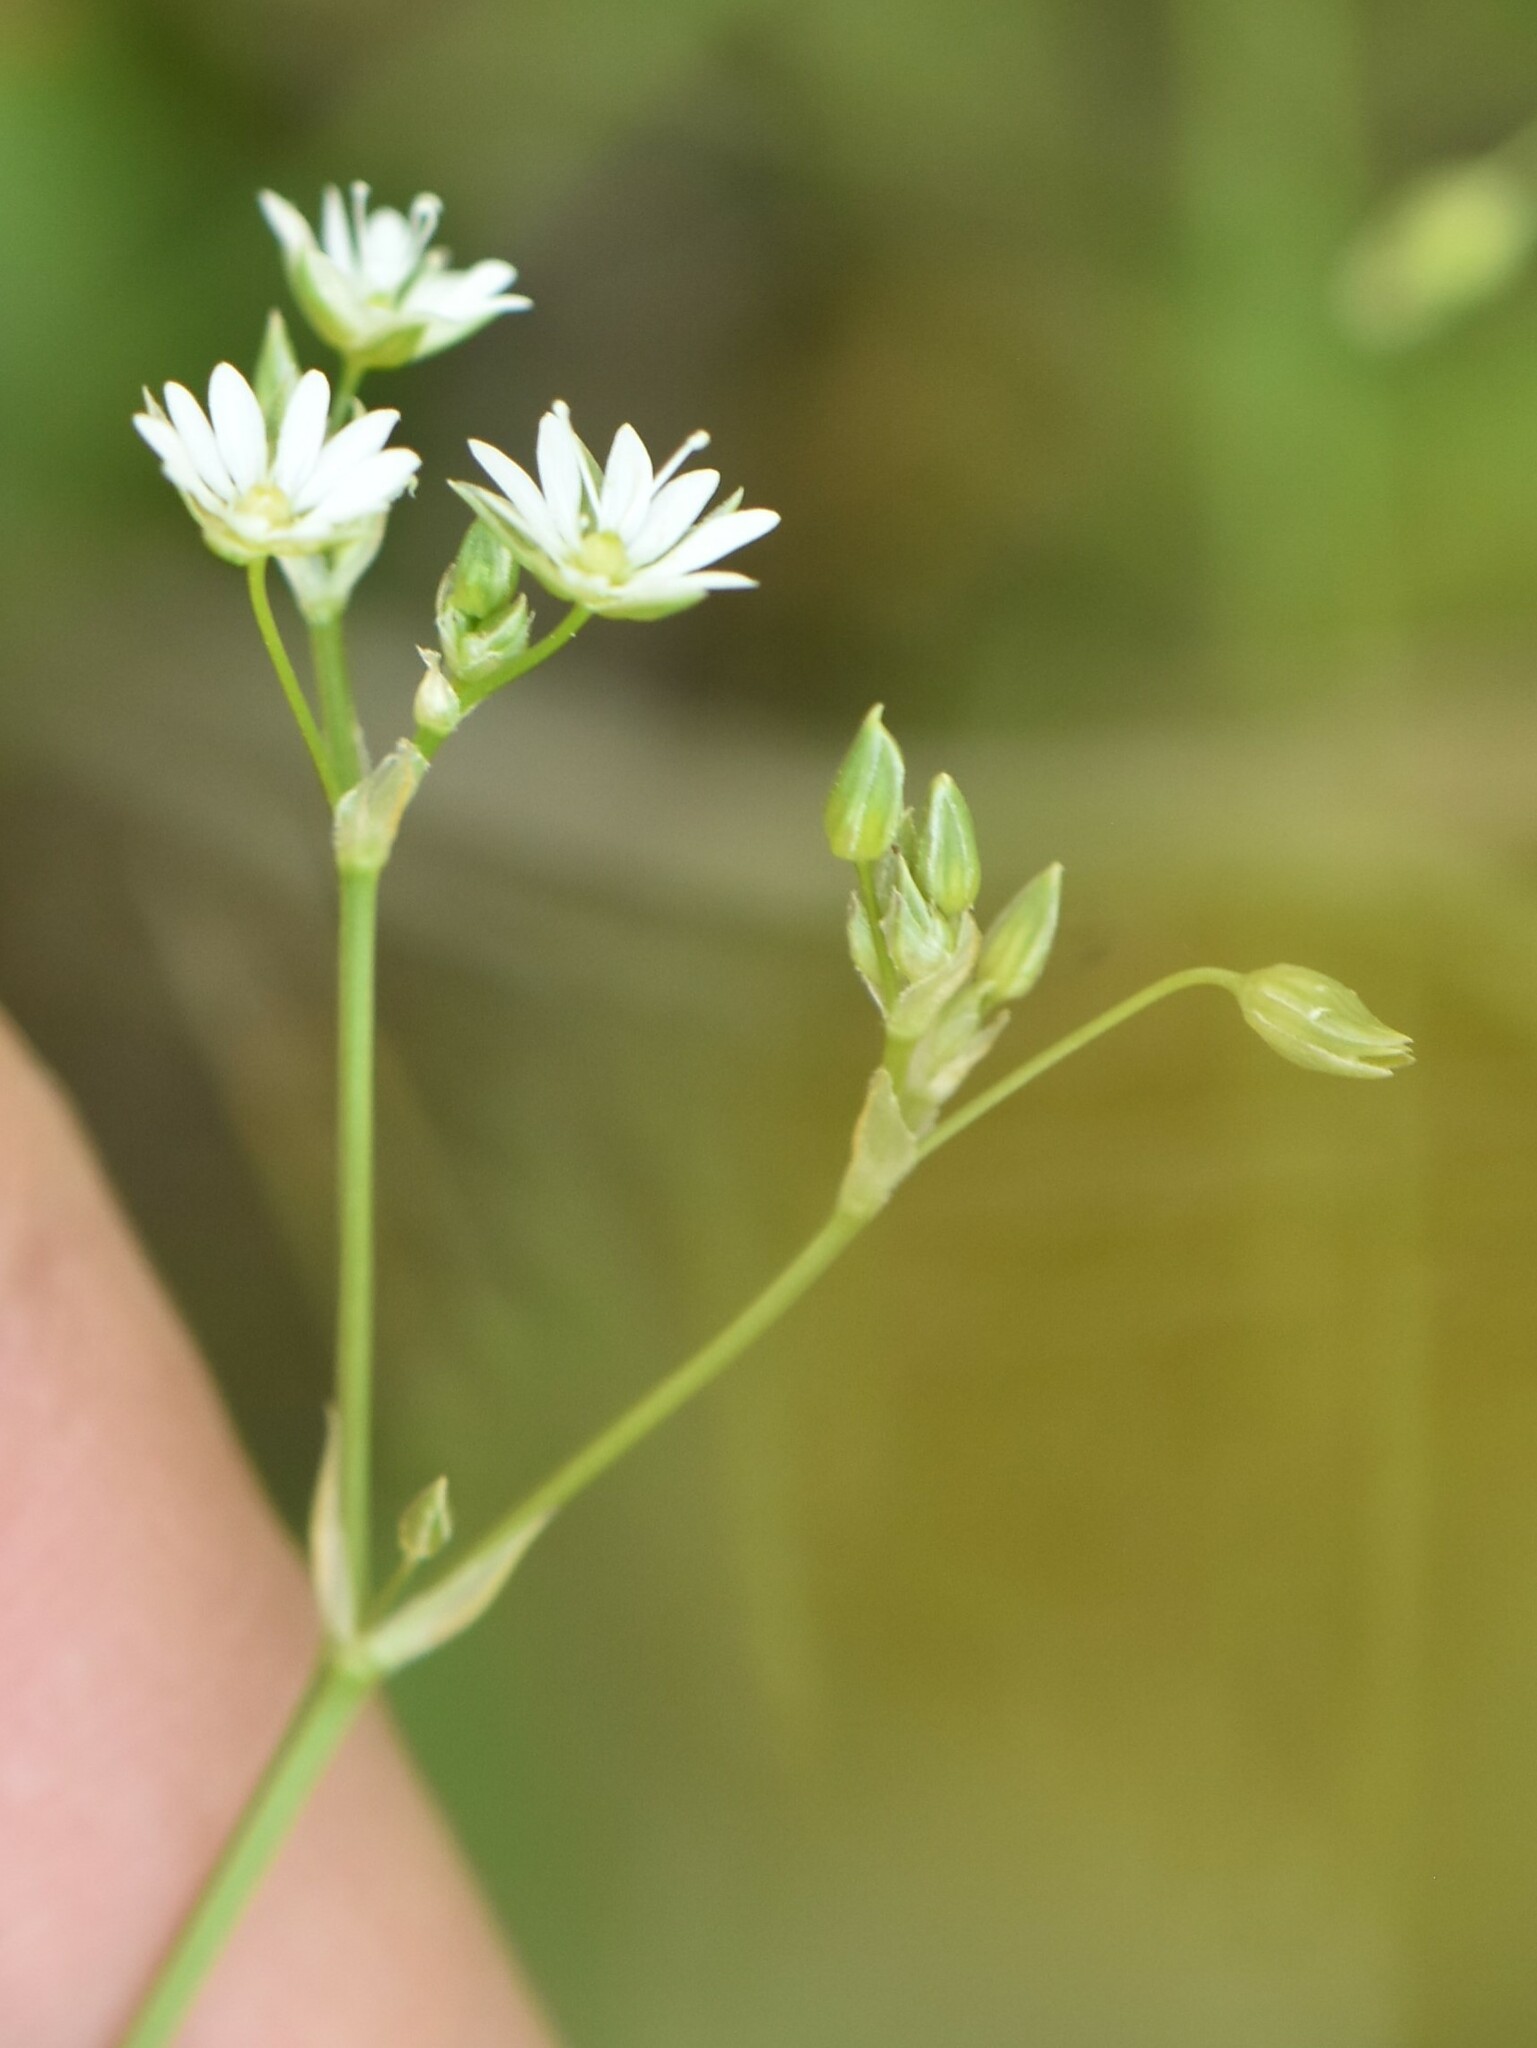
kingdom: Plantae
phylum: Tracheophyta
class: Magnoliopsida
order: Caryophyllales
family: Caryophyllaceae
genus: Stellaria
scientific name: Stellaria graminea
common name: Grass-like starwort
